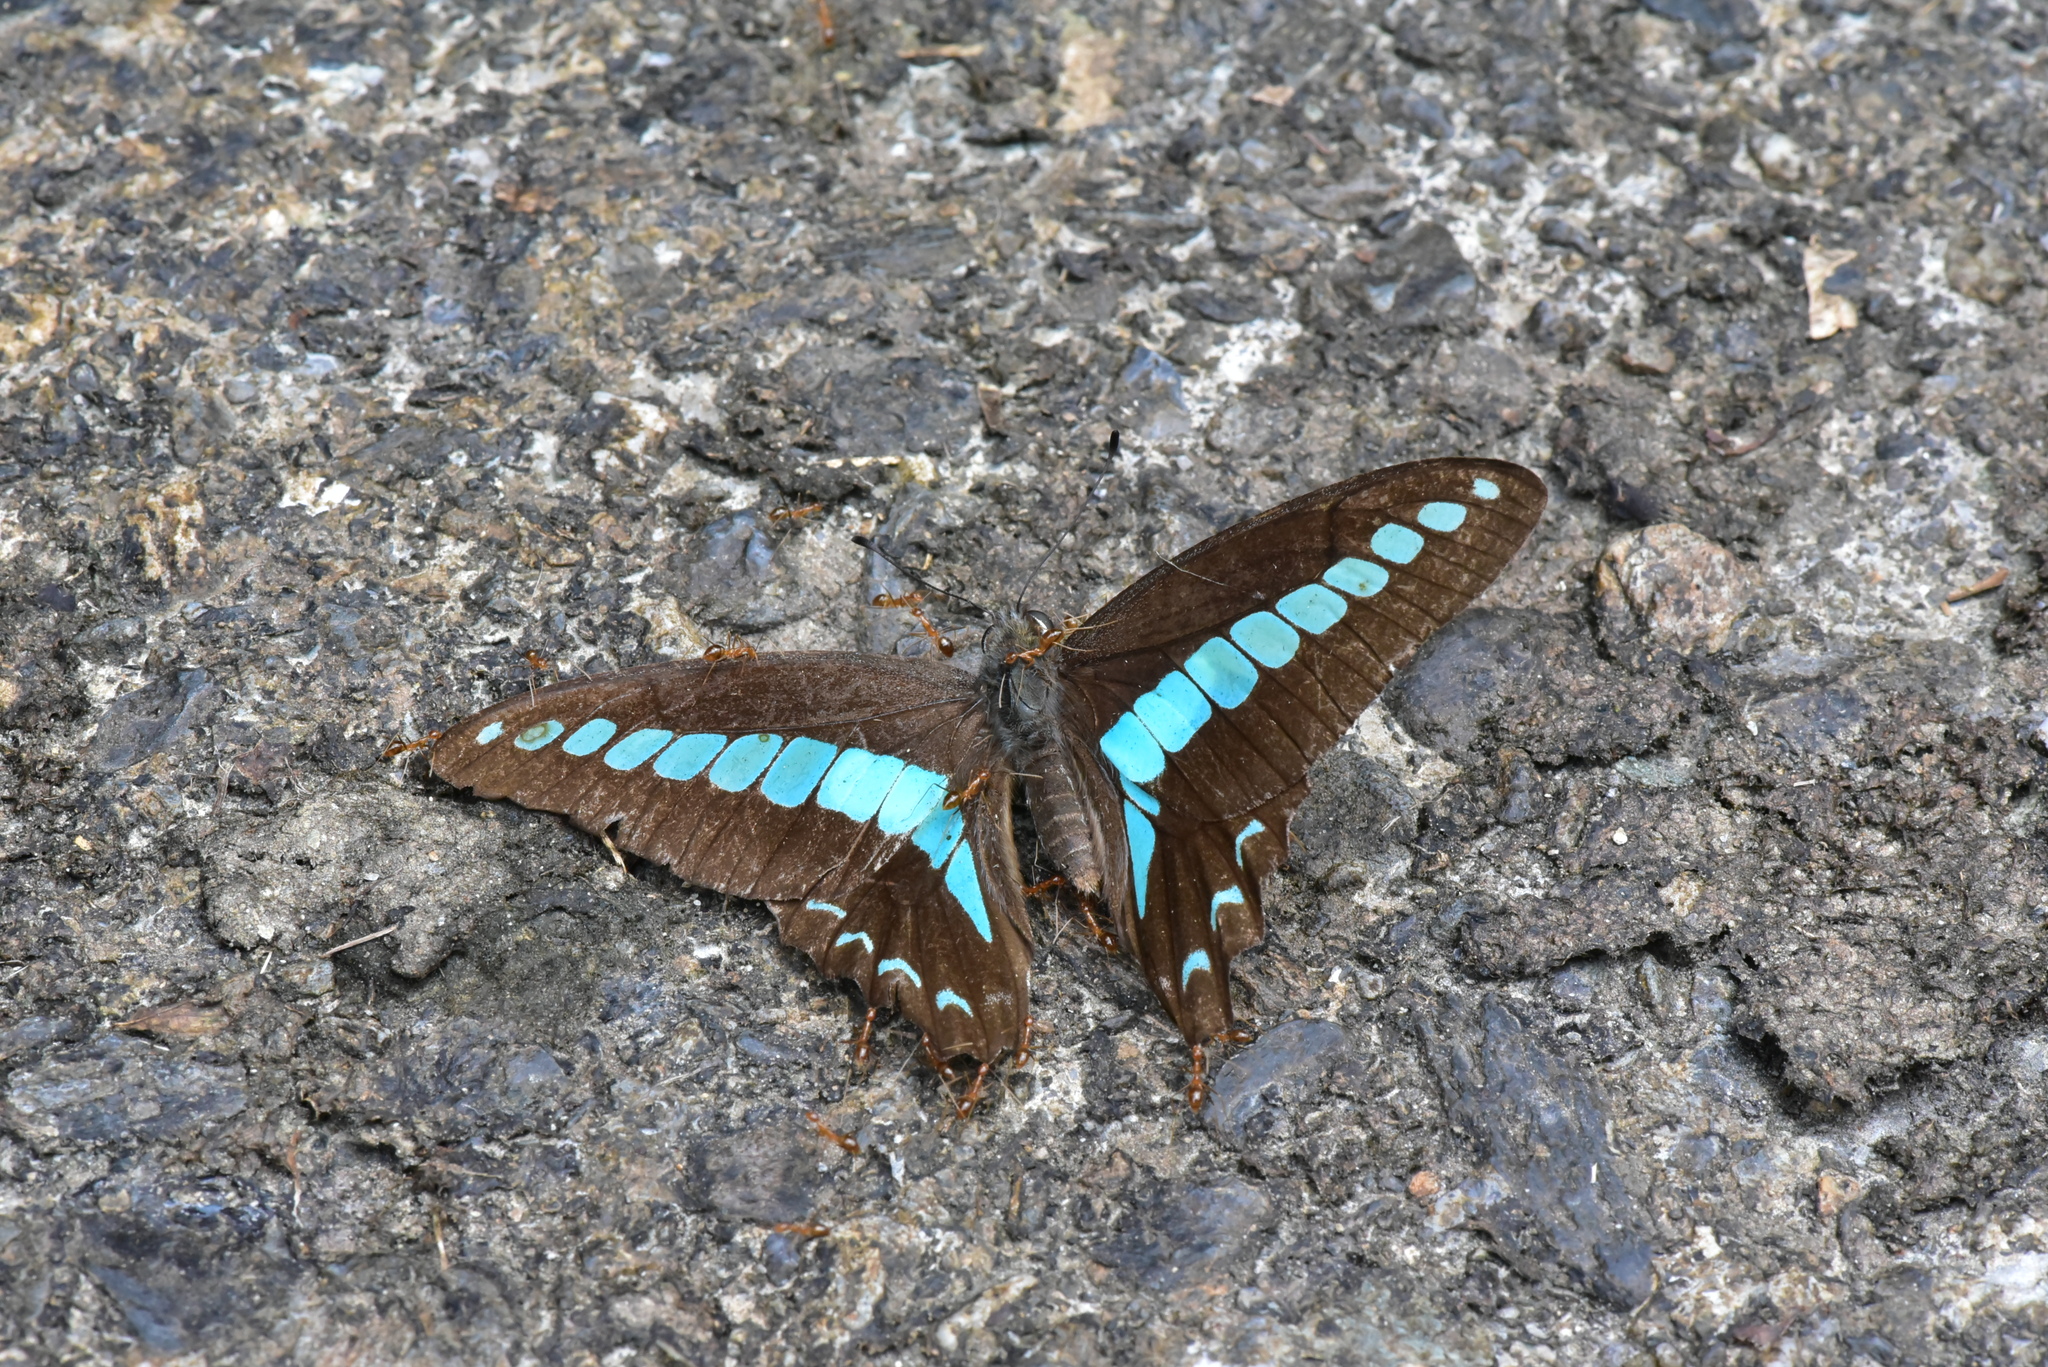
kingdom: Fungi
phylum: Ascomycota
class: Sordariomycetes
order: Microascales
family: Microascaceae
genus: Graphium
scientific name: Graphium sarpedon
